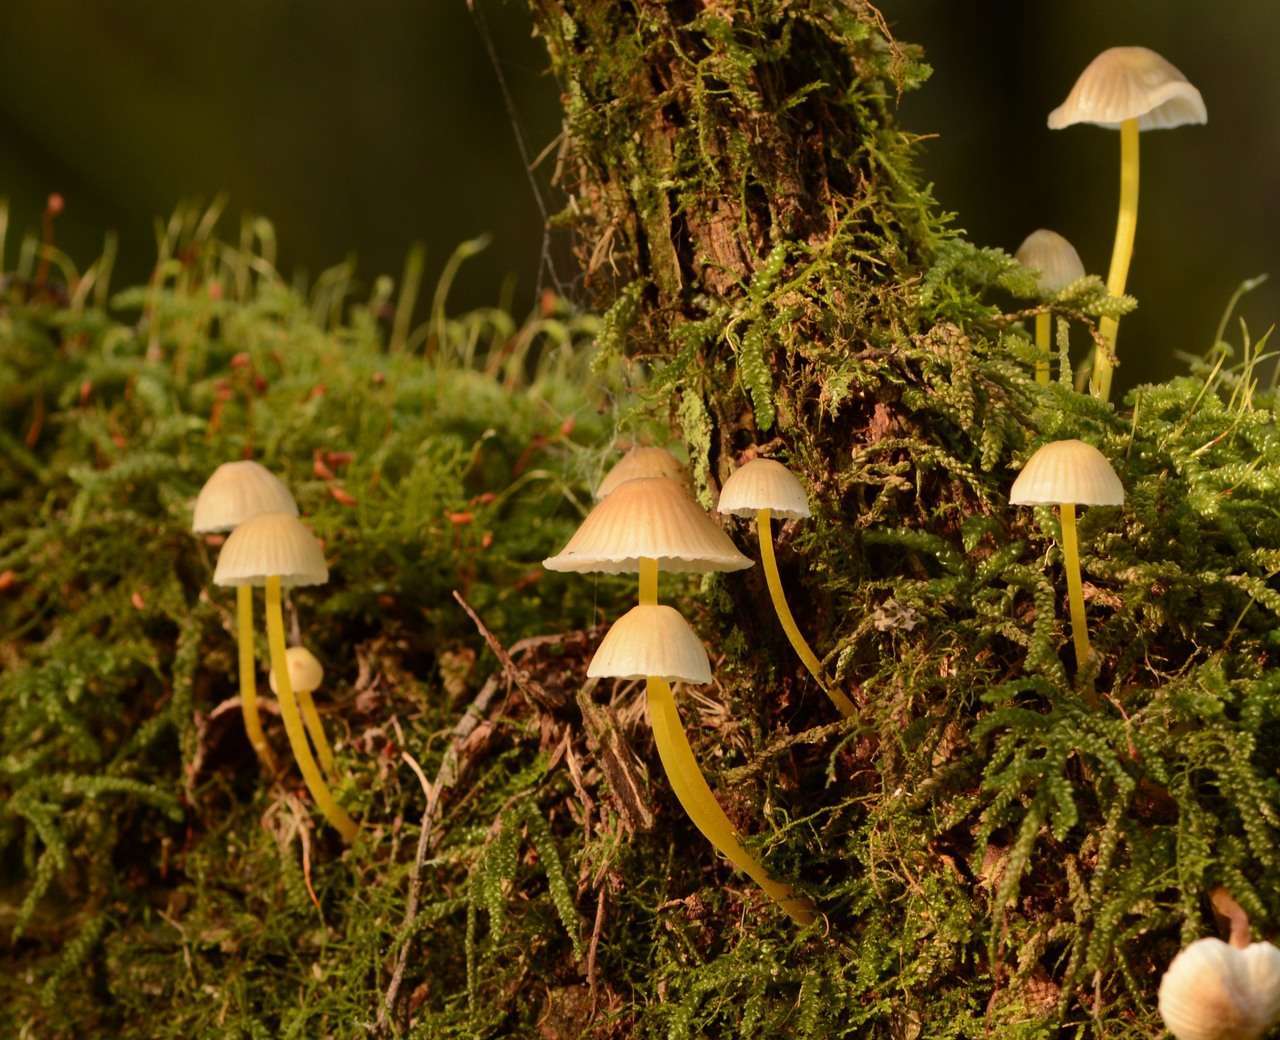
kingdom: Fungi
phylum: Basidiomycota
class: Agaricomycetes
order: Agaricales
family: Mycenaceae
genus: Mycena
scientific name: Mycena epipterygia
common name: Yellowleg bonnet
